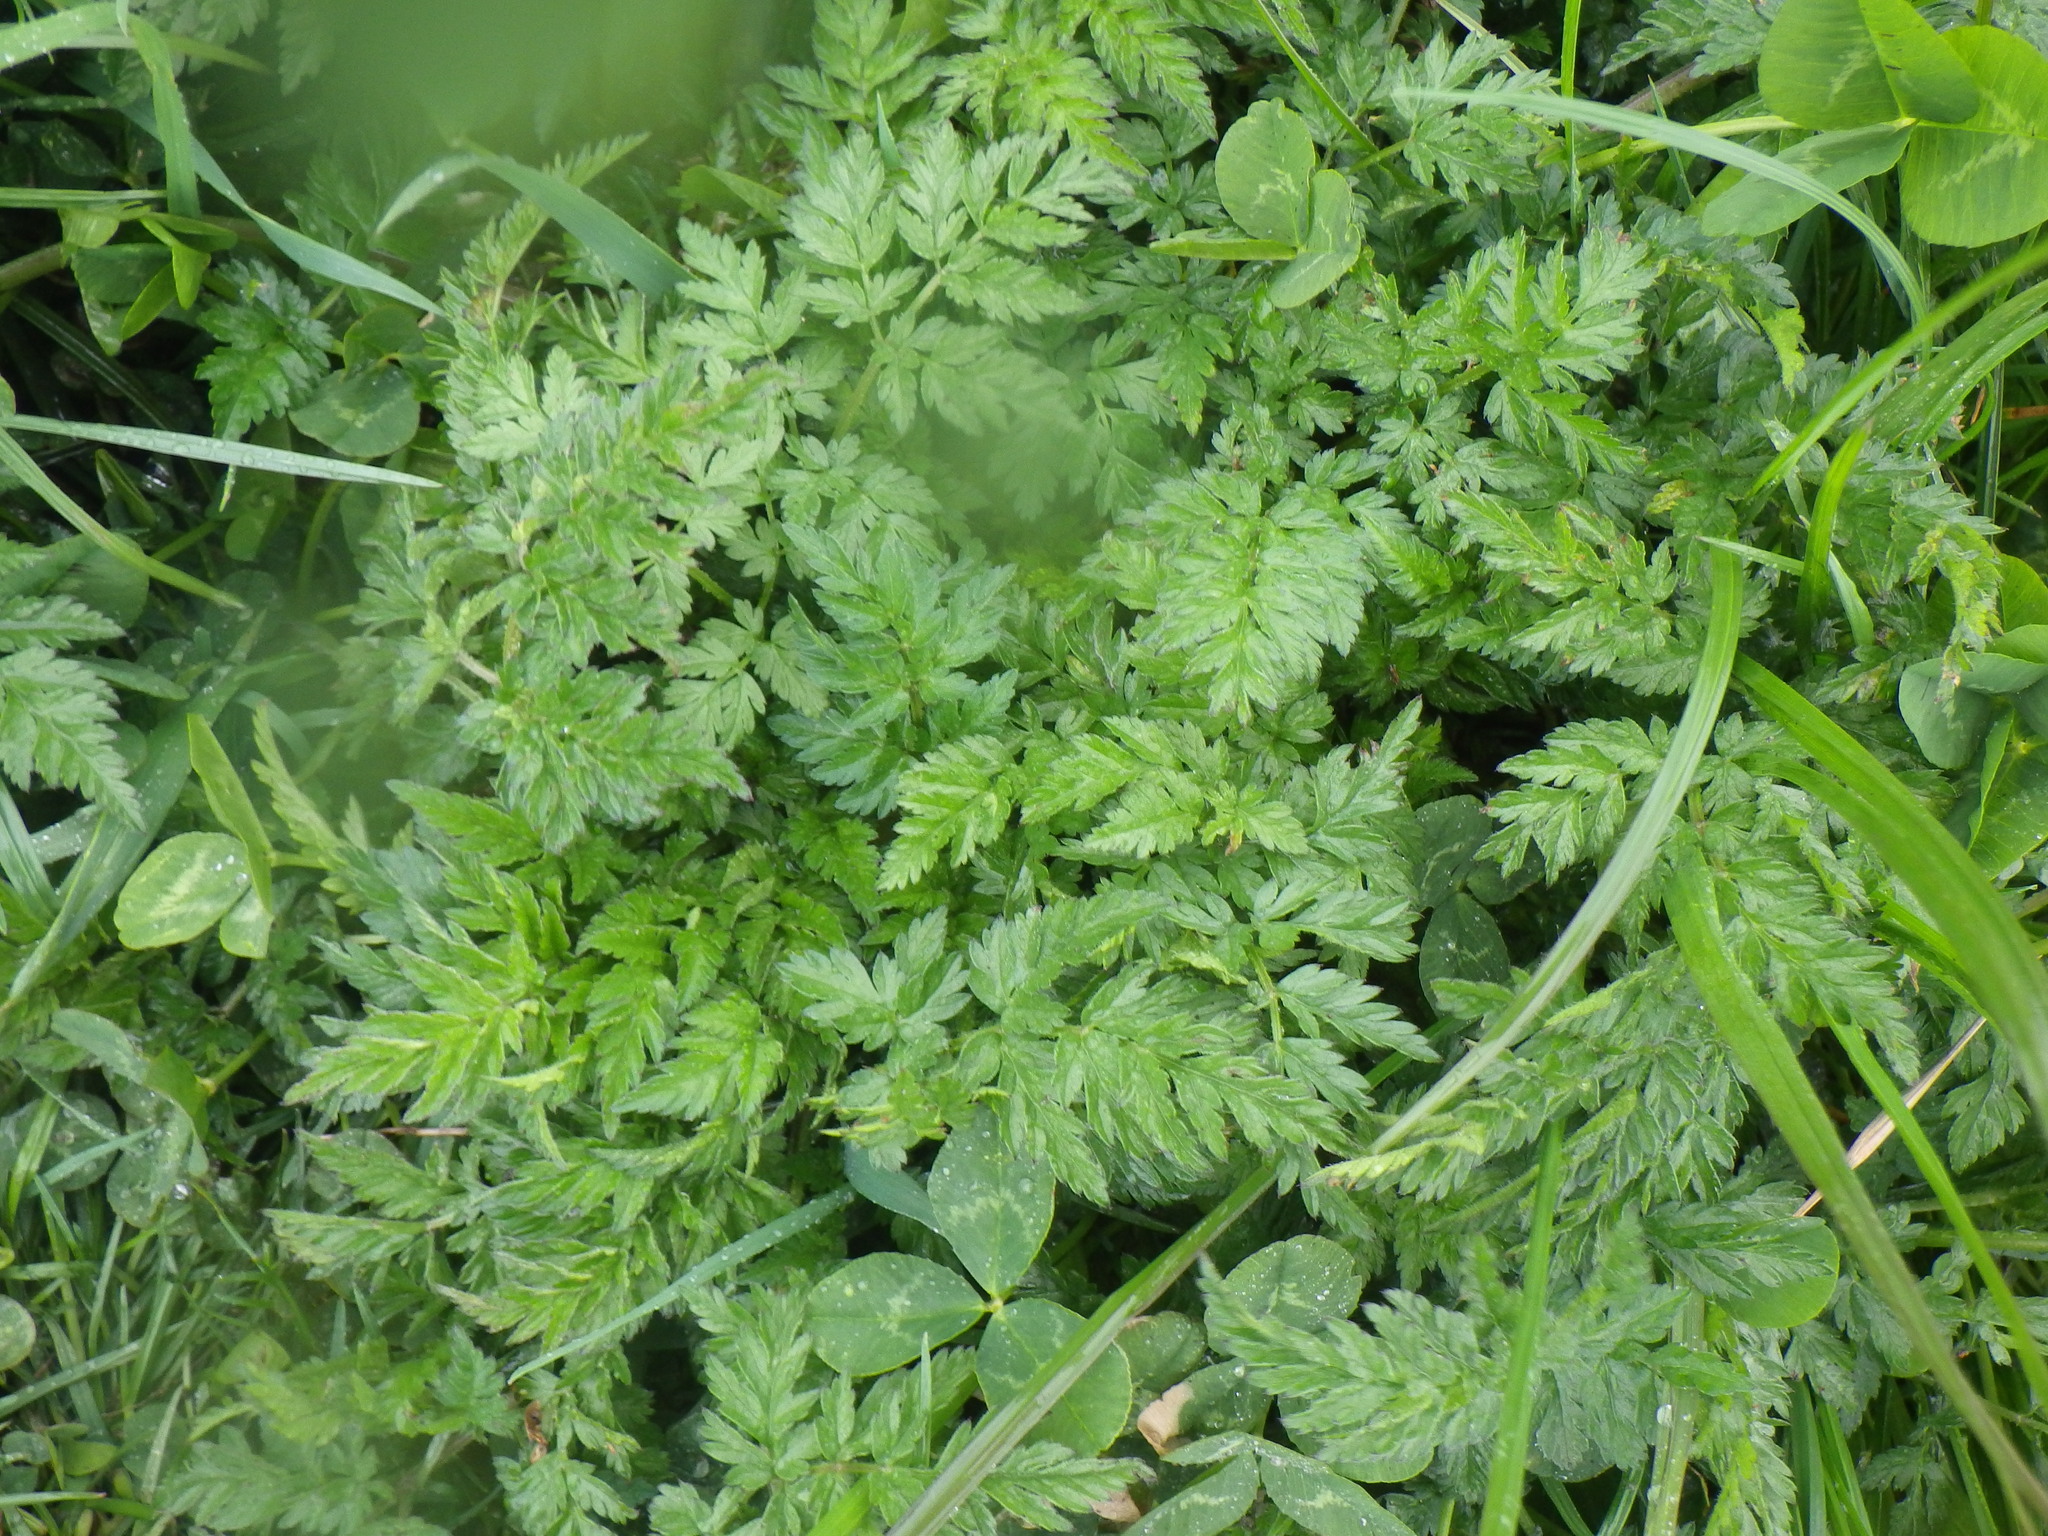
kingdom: Plantae
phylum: Tracheophyta
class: Magnoliopsida
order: Apiales
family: Apiaceae
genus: Anthriscus
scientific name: Anthriscus sylvestris
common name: Cow parsley
